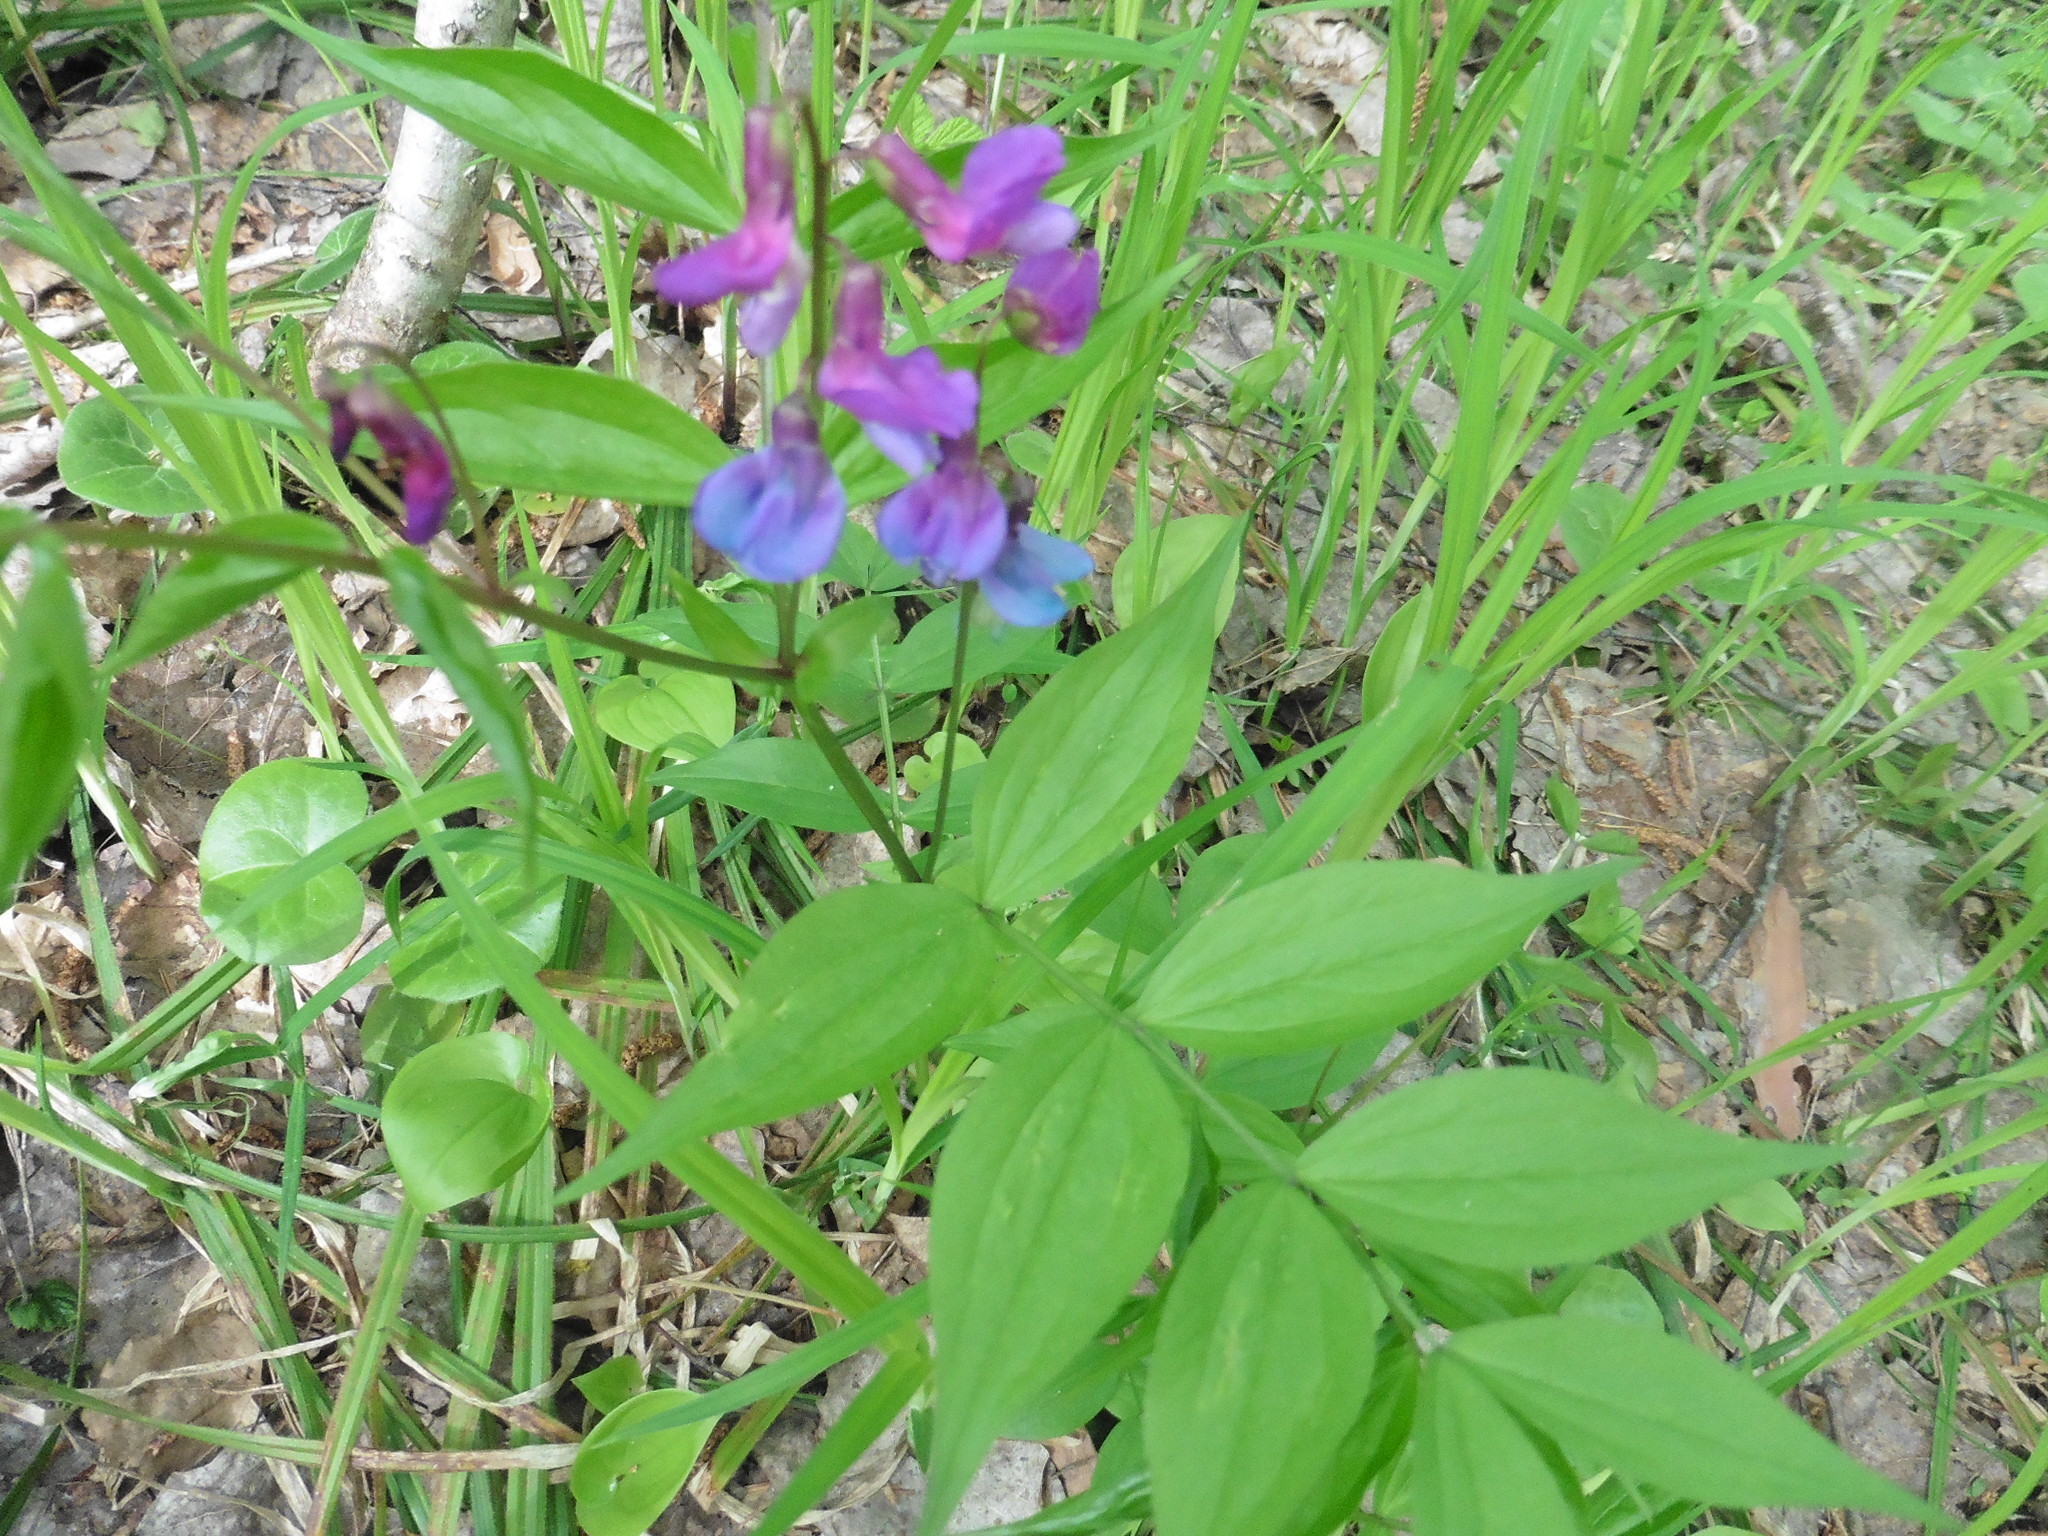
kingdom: Plantae
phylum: Tracheophyta
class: Magnoliopsida
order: Fabales
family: Fabaceae
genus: Lathyrus
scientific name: Lathyrus vernus
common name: Spring pea
